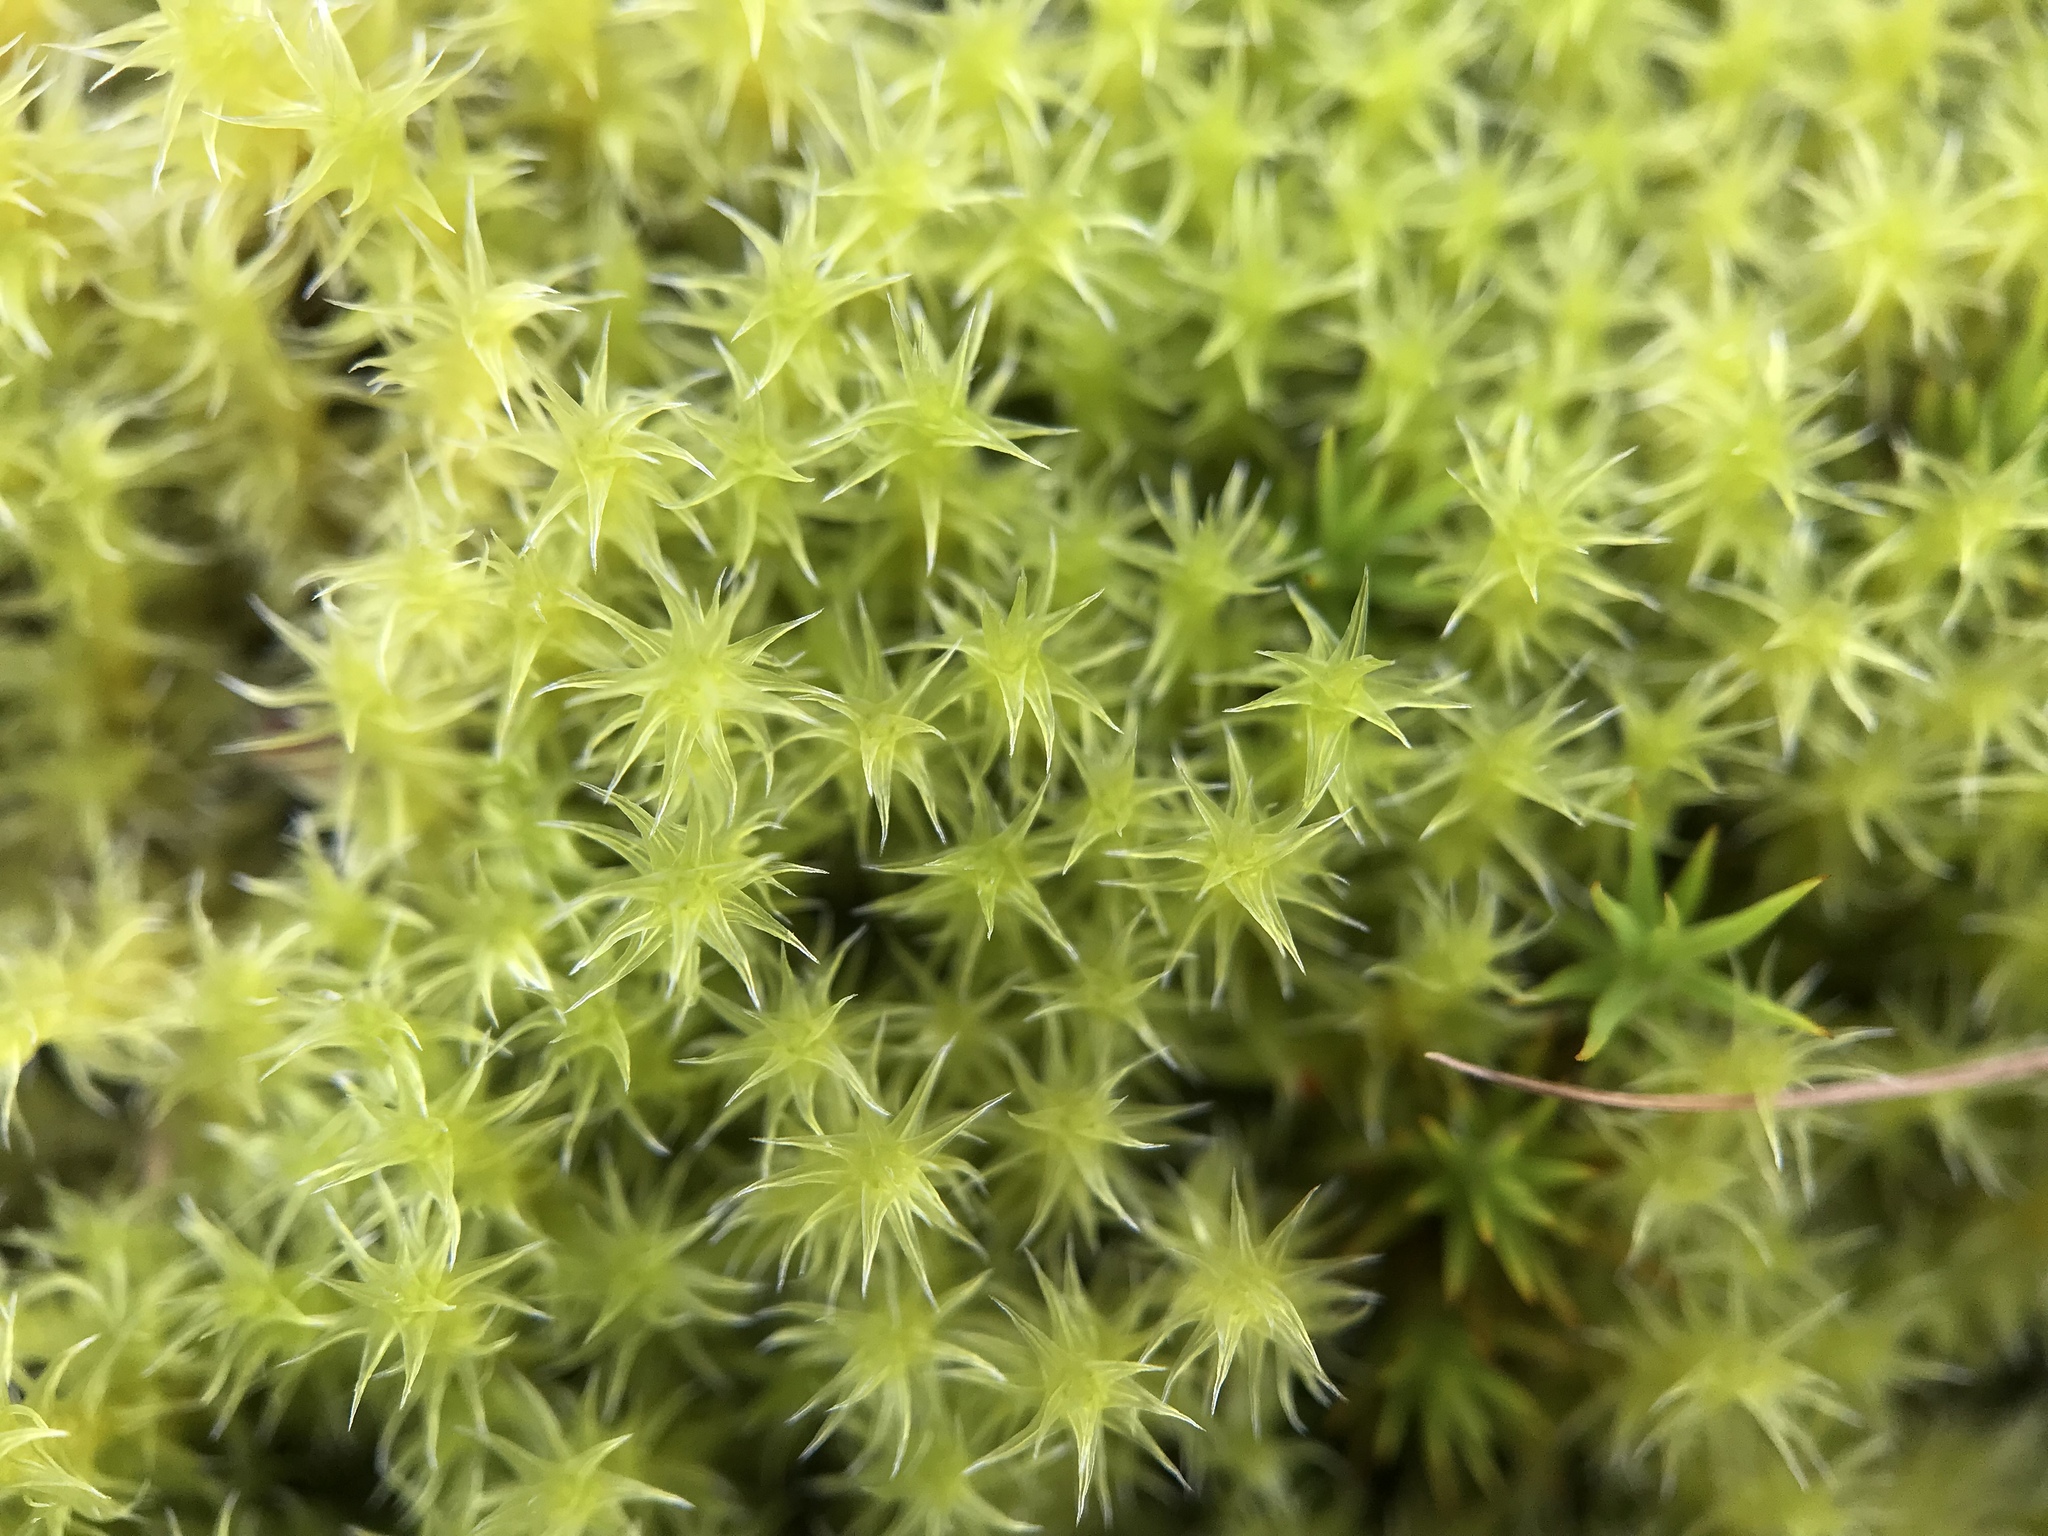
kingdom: Plantae
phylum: Bryophyta
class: Bryopsida
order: Grimmiales
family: Grimmiaceae
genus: Niphotrichum
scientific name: Niphotrichum ericoides
